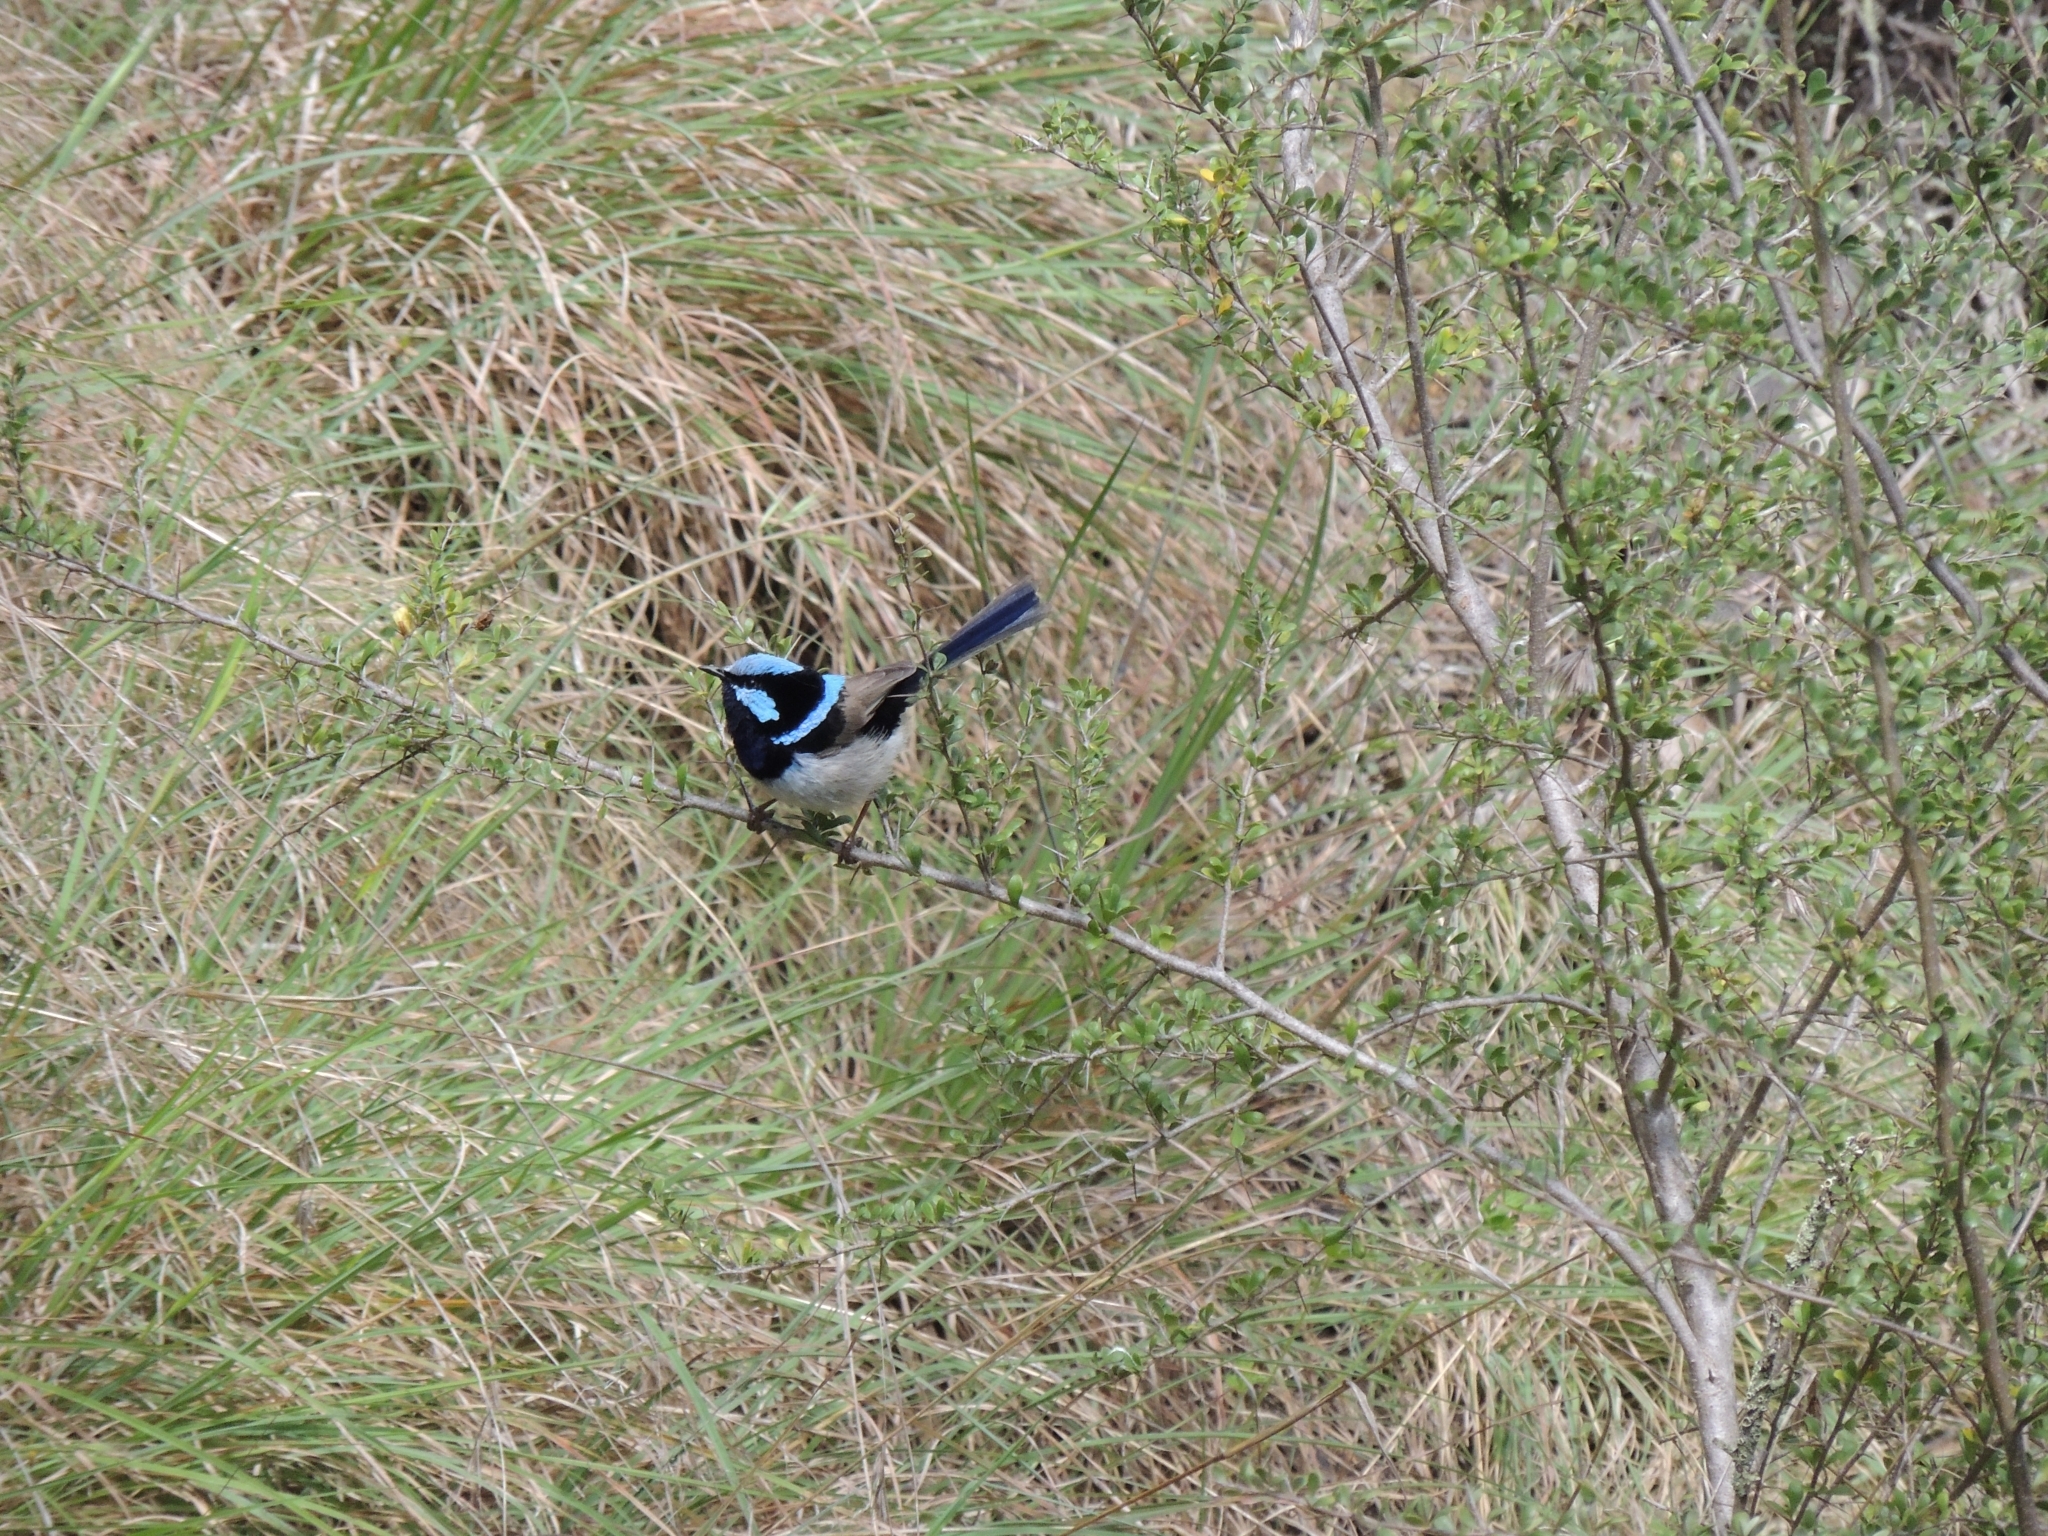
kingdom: Animalia
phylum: Chordata
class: Aves
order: Passeriformes
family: Maluridae
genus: Malurus
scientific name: Malurus cyaneus
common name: Superb fairywren
